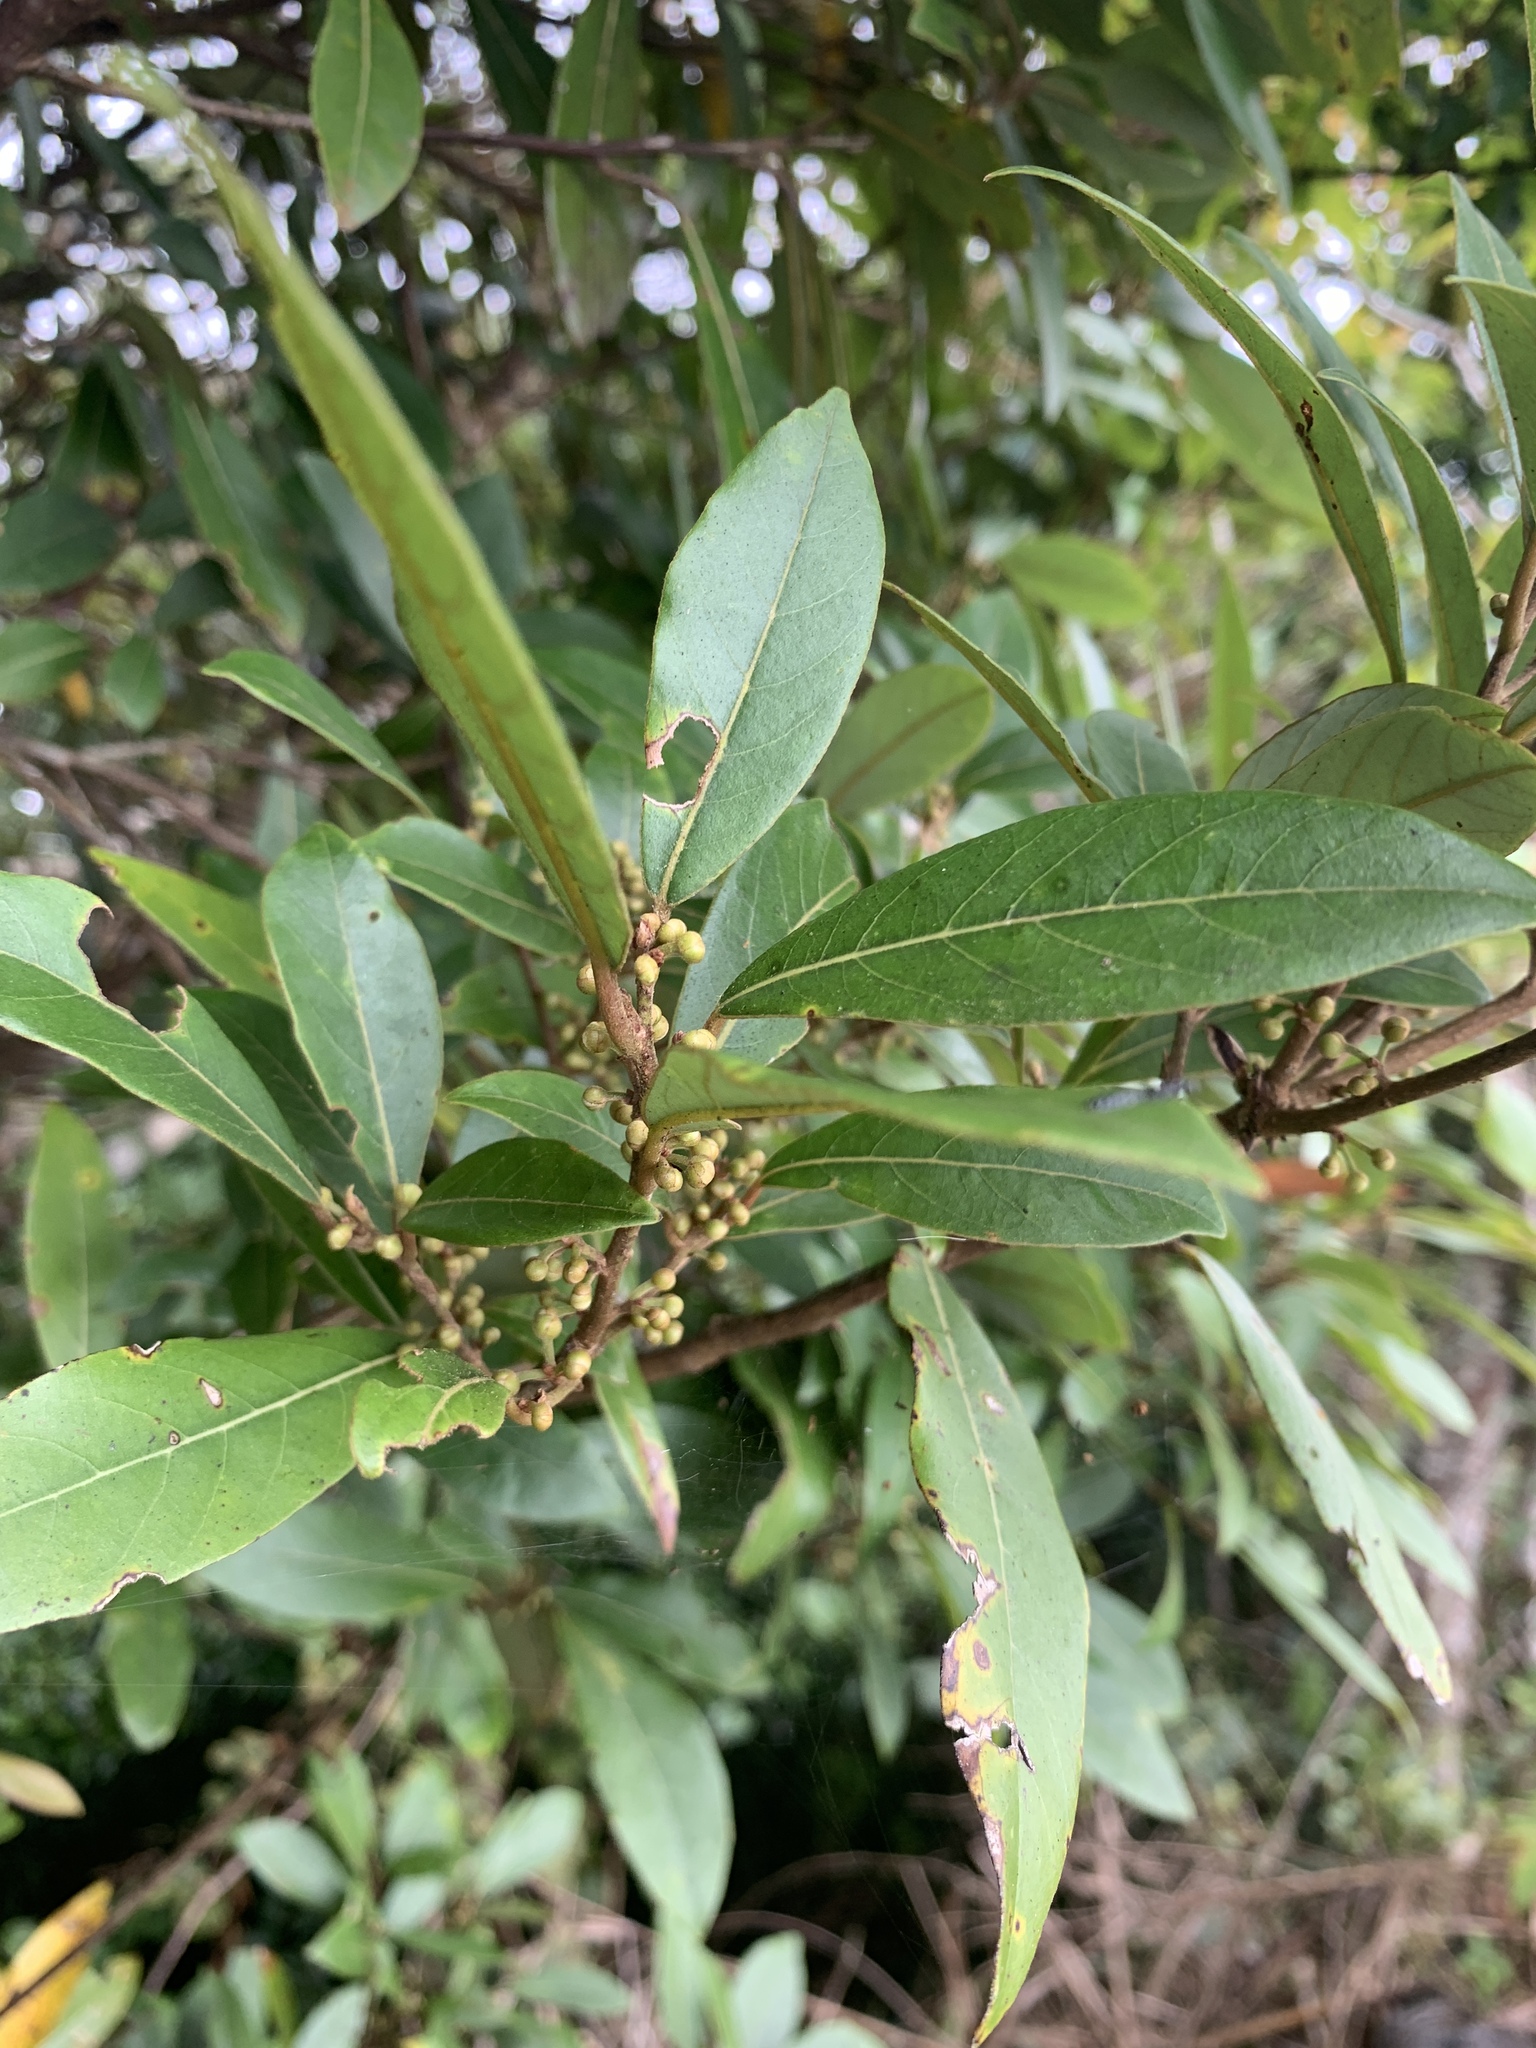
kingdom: Plantae
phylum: Tracheophyta
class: Magnoliopsida
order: Laurales
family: Lauraceae
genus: Litsea
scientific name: Litsea morrisonensis
